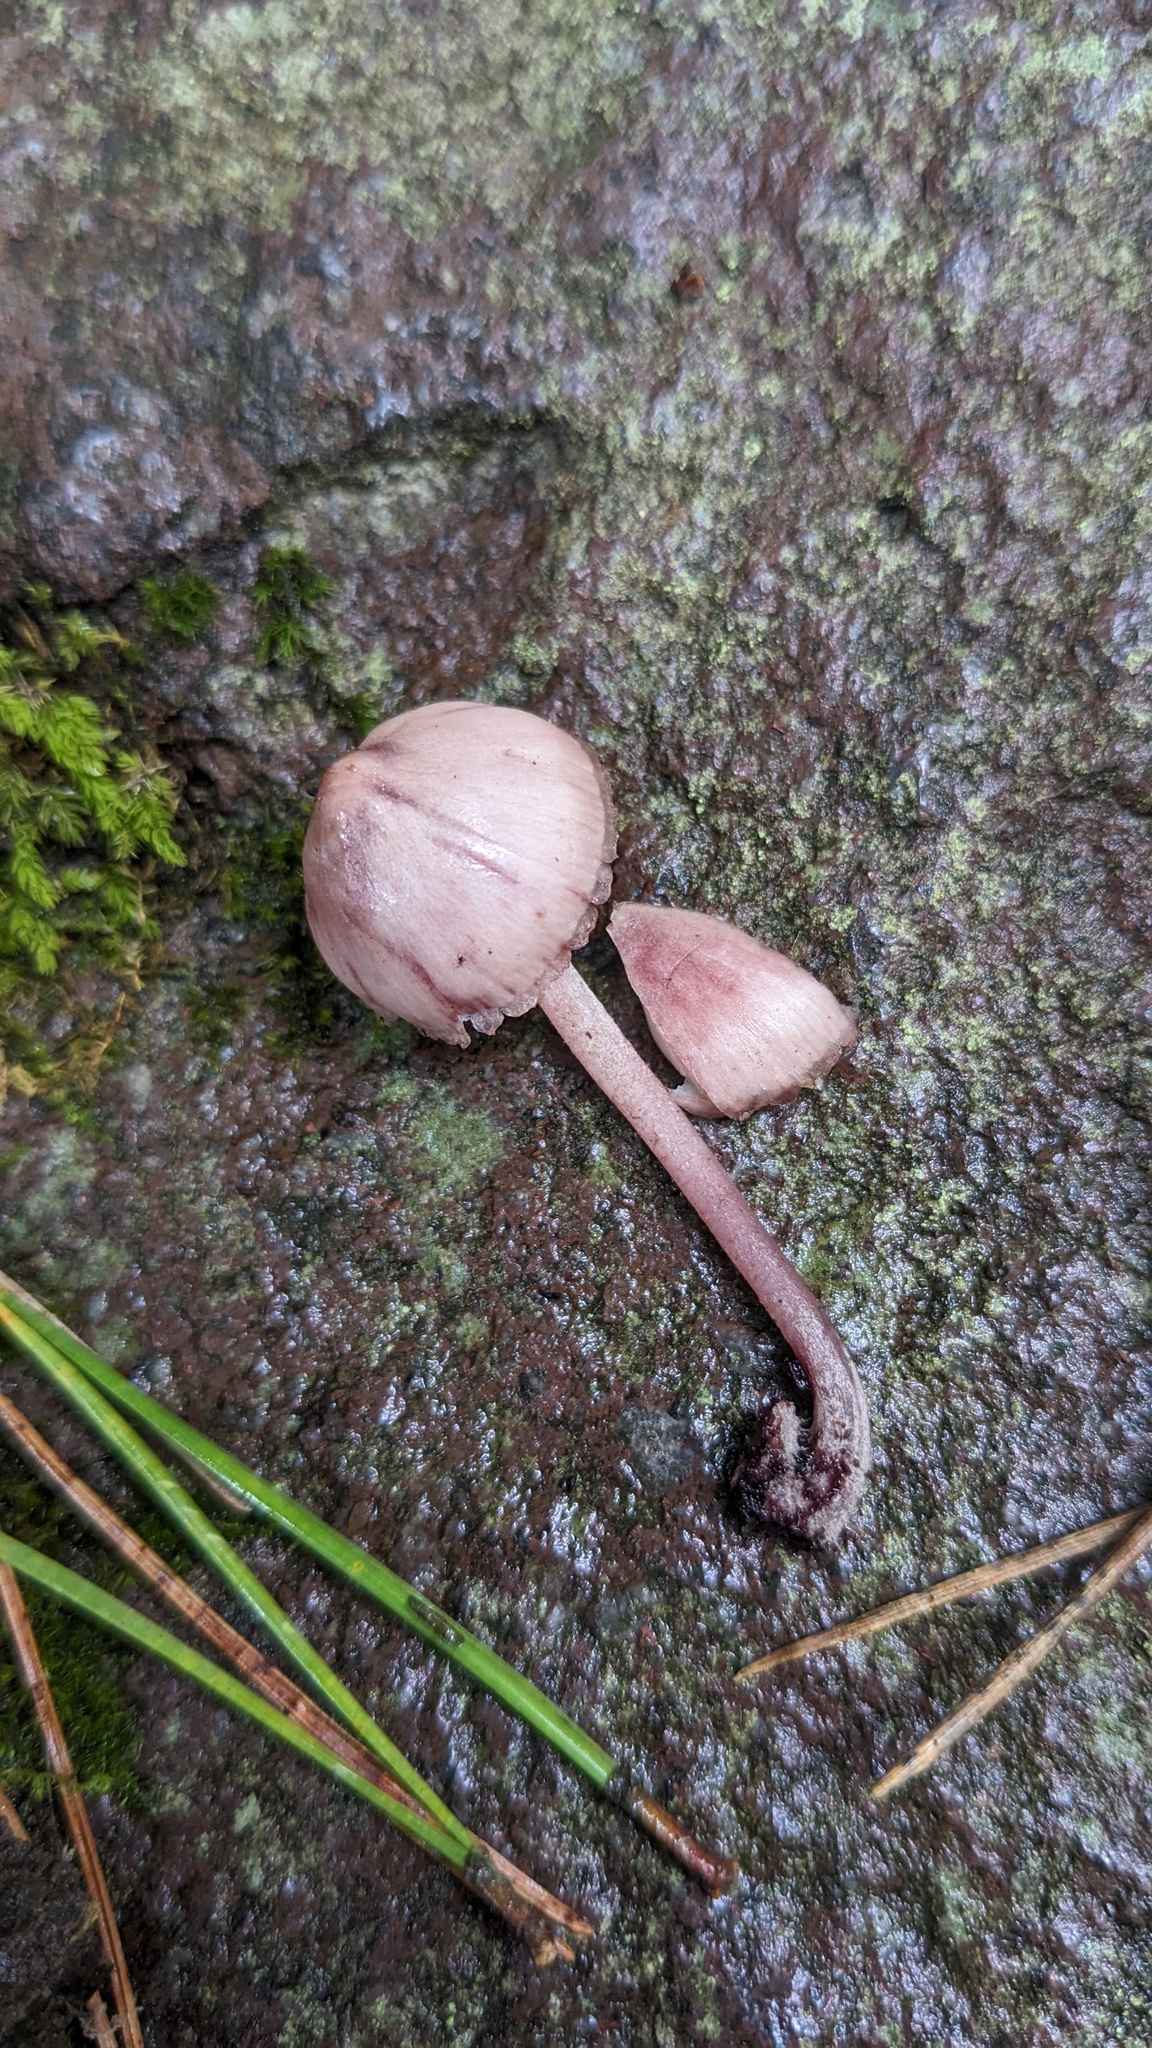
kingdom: Fungi
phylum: Basidiomycota
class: Agaricomycetes
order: Agaricales
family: Mycenaceae
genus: Mycena
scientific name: Mycena haematopus
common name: Burgundydrop bonnet
